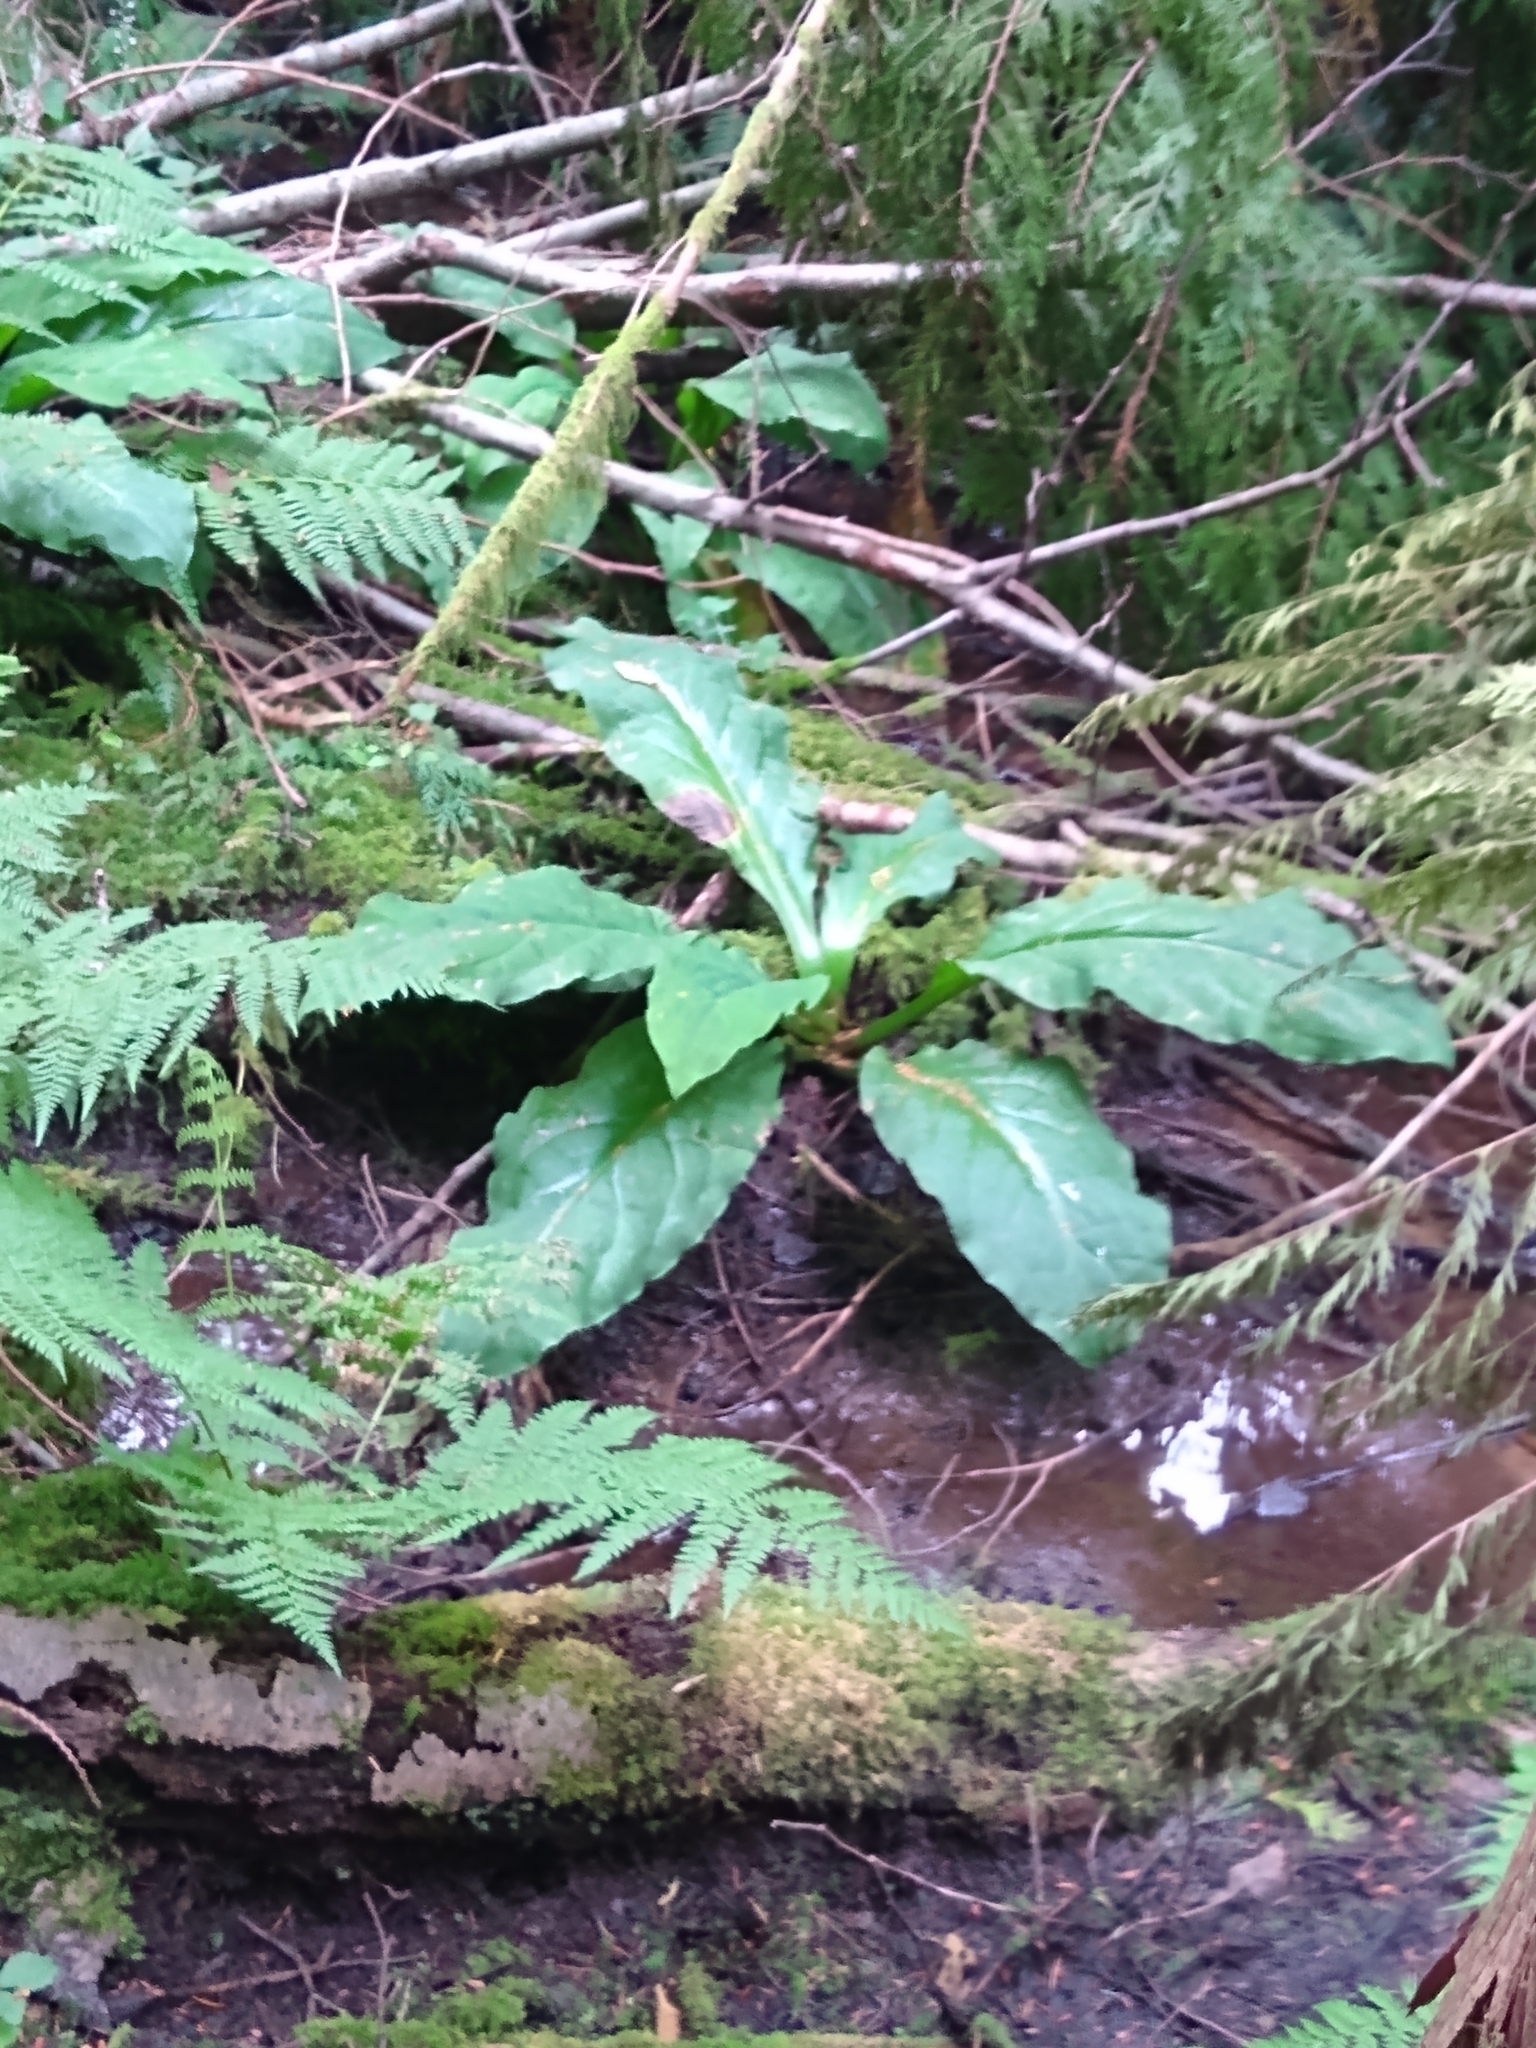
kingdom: Plantae
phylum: Tracheophyta
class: Liliopsida
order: Alismatales
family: Araceae
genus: Lysichiton
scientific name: Lysichiton americanus
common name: American skunk cabbage
